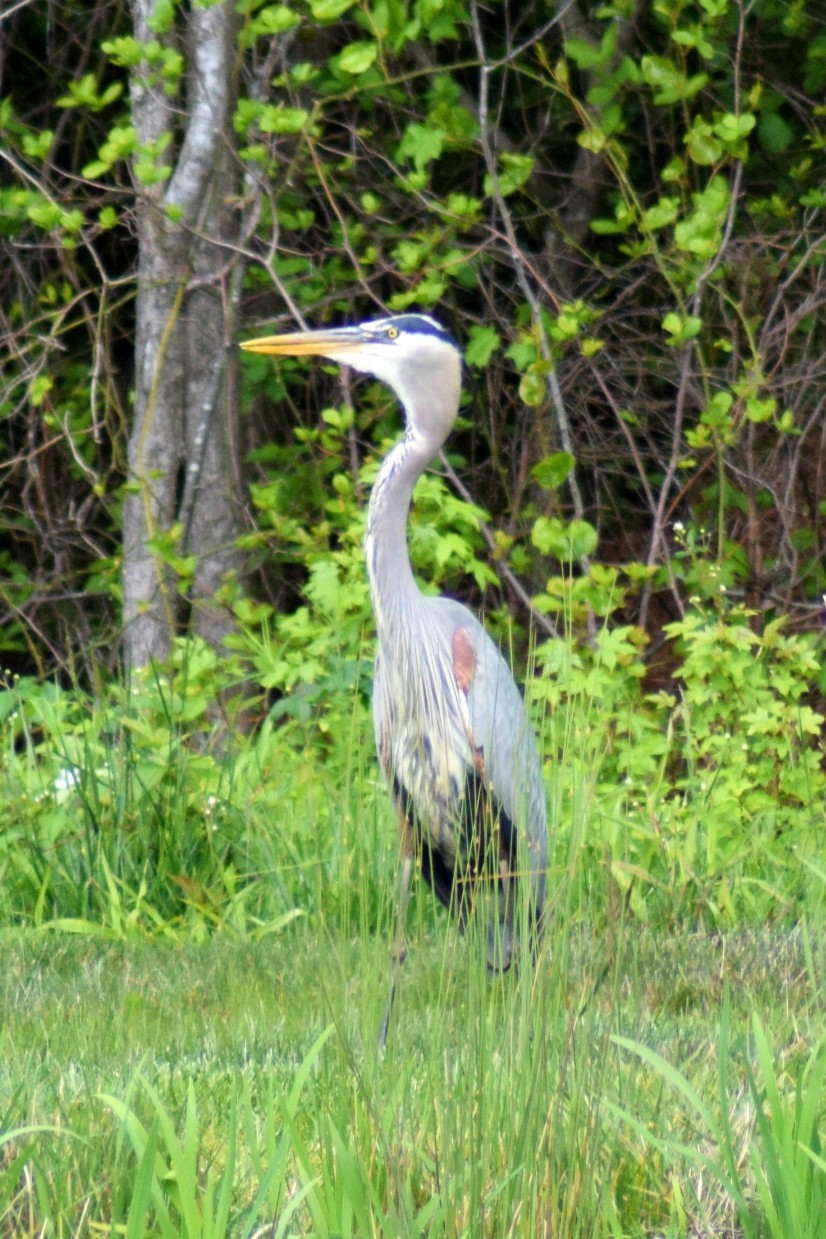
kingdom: Animalia
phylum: Chordata
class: Aves
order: Pelecaniformes
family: Ardeidae
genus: Ardea
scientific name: Ardea herodias
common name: Great blue heron
